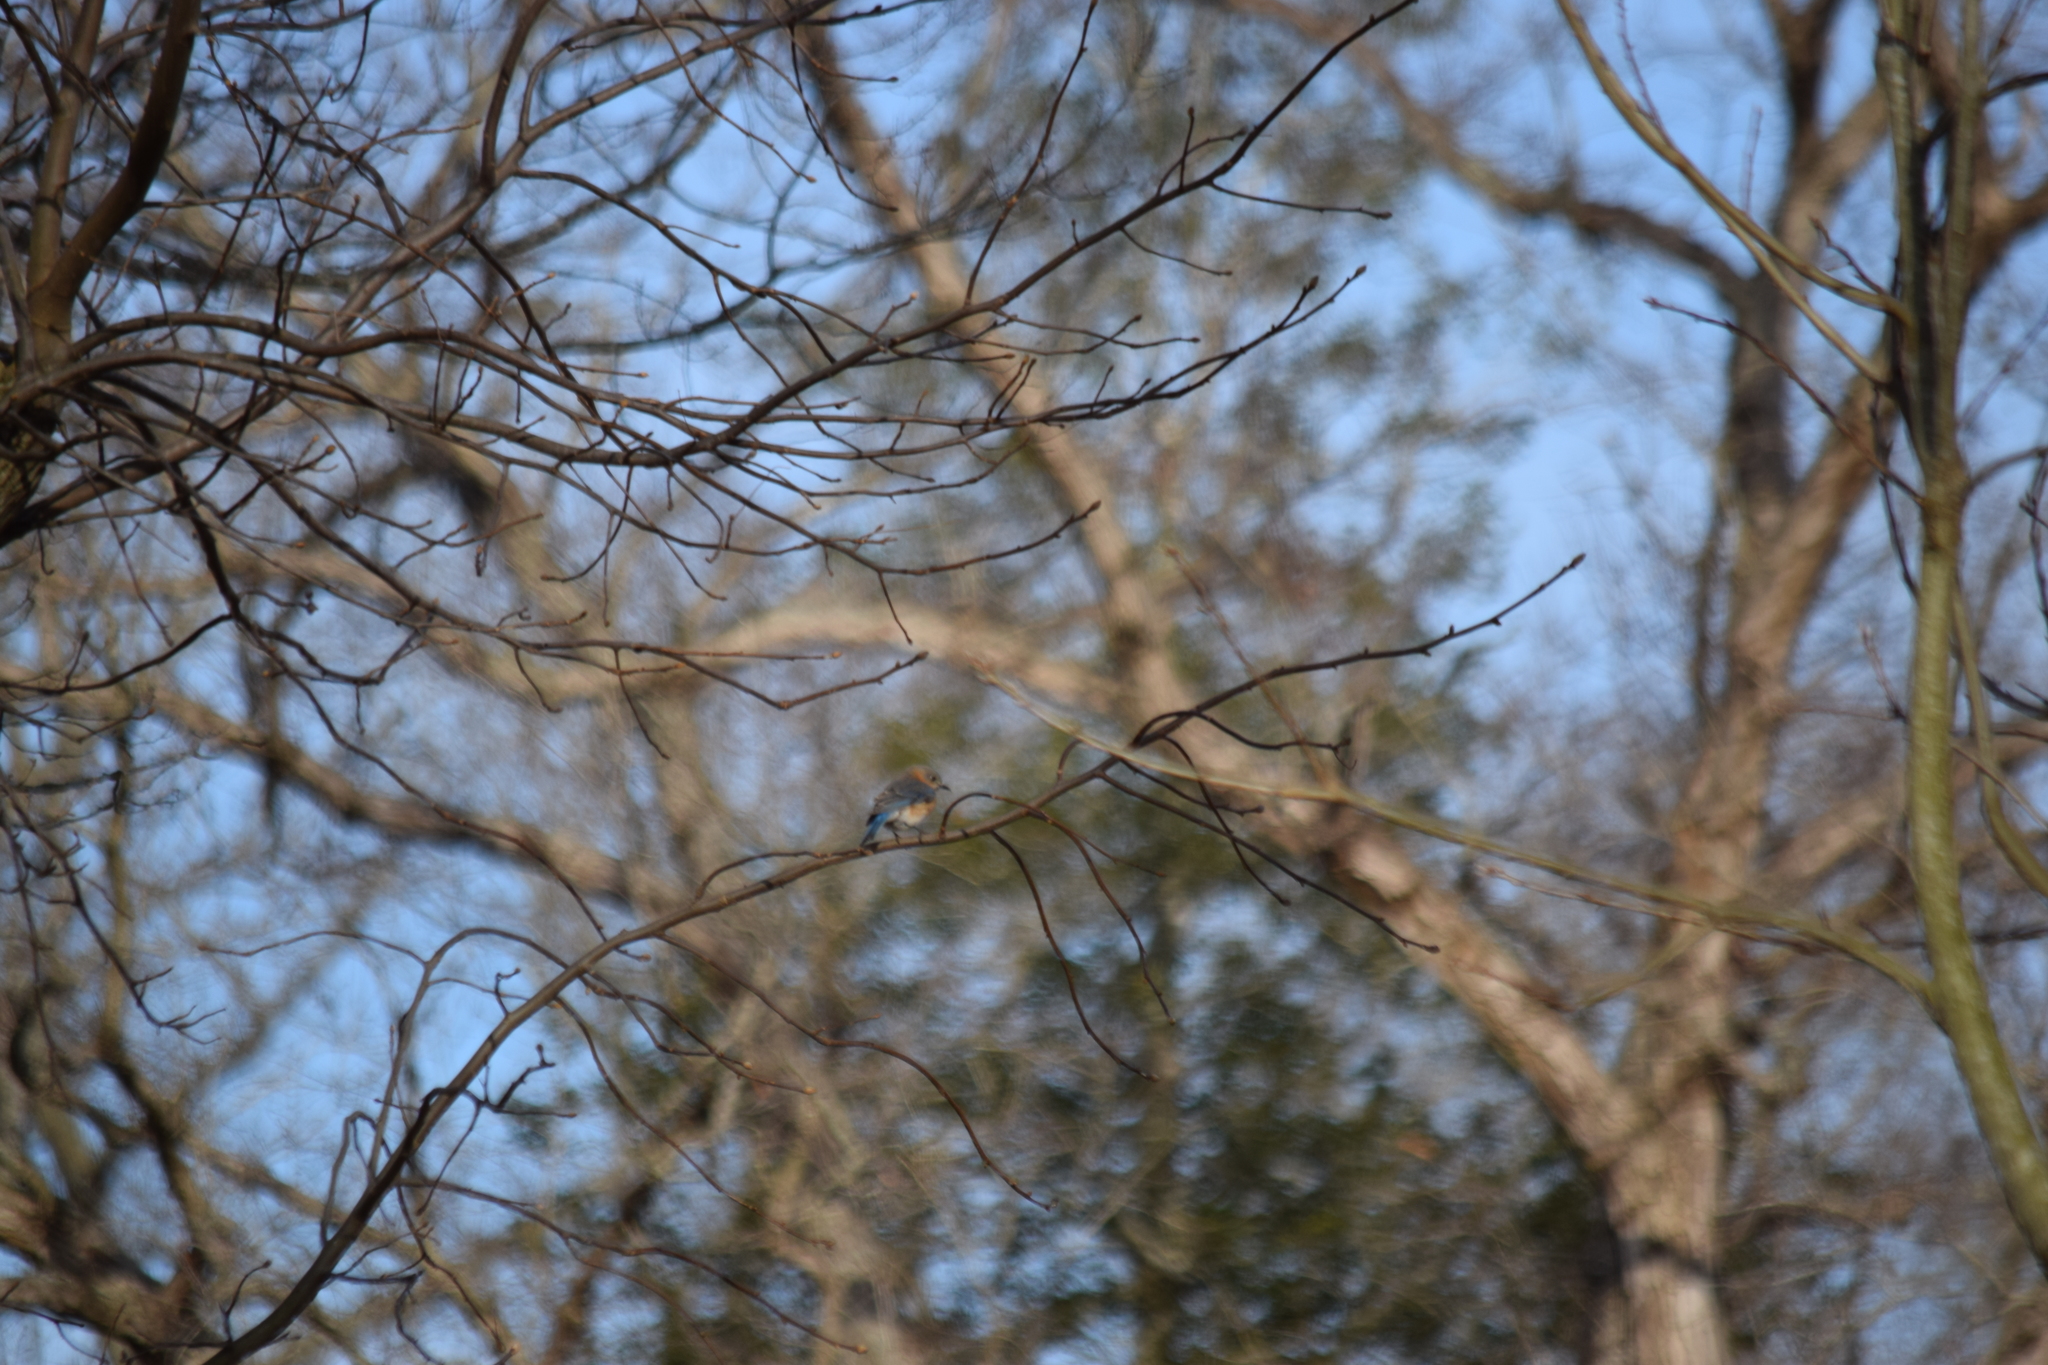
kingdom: Animalia
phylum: Chordata
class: Aves
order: Passeriformes
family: Turdidae
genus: Sialia
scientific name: Sialia sialis
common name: Eastern bluebird
